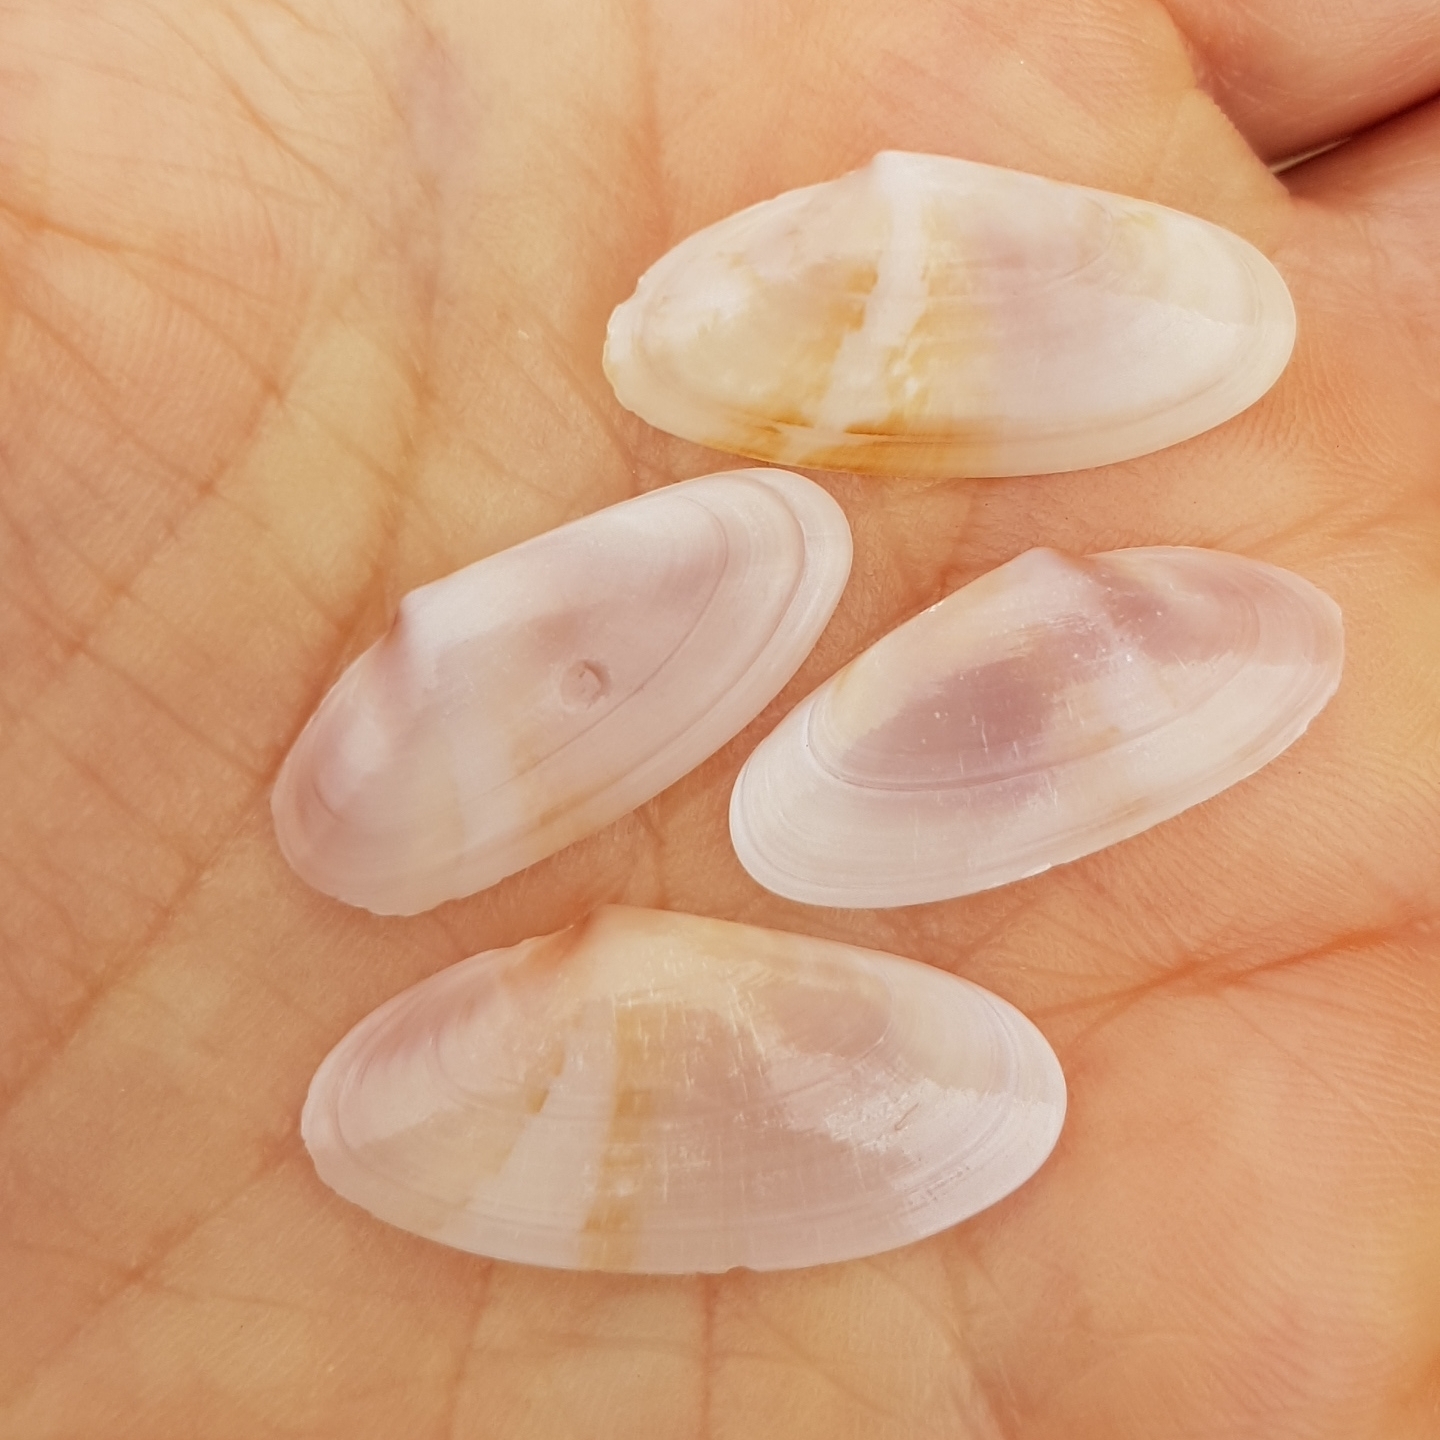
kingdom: Animalia
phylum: Mollusca
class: Bivalvia
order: Cardiida
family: Donacidae
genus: Donax
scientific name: Donax variegatus
